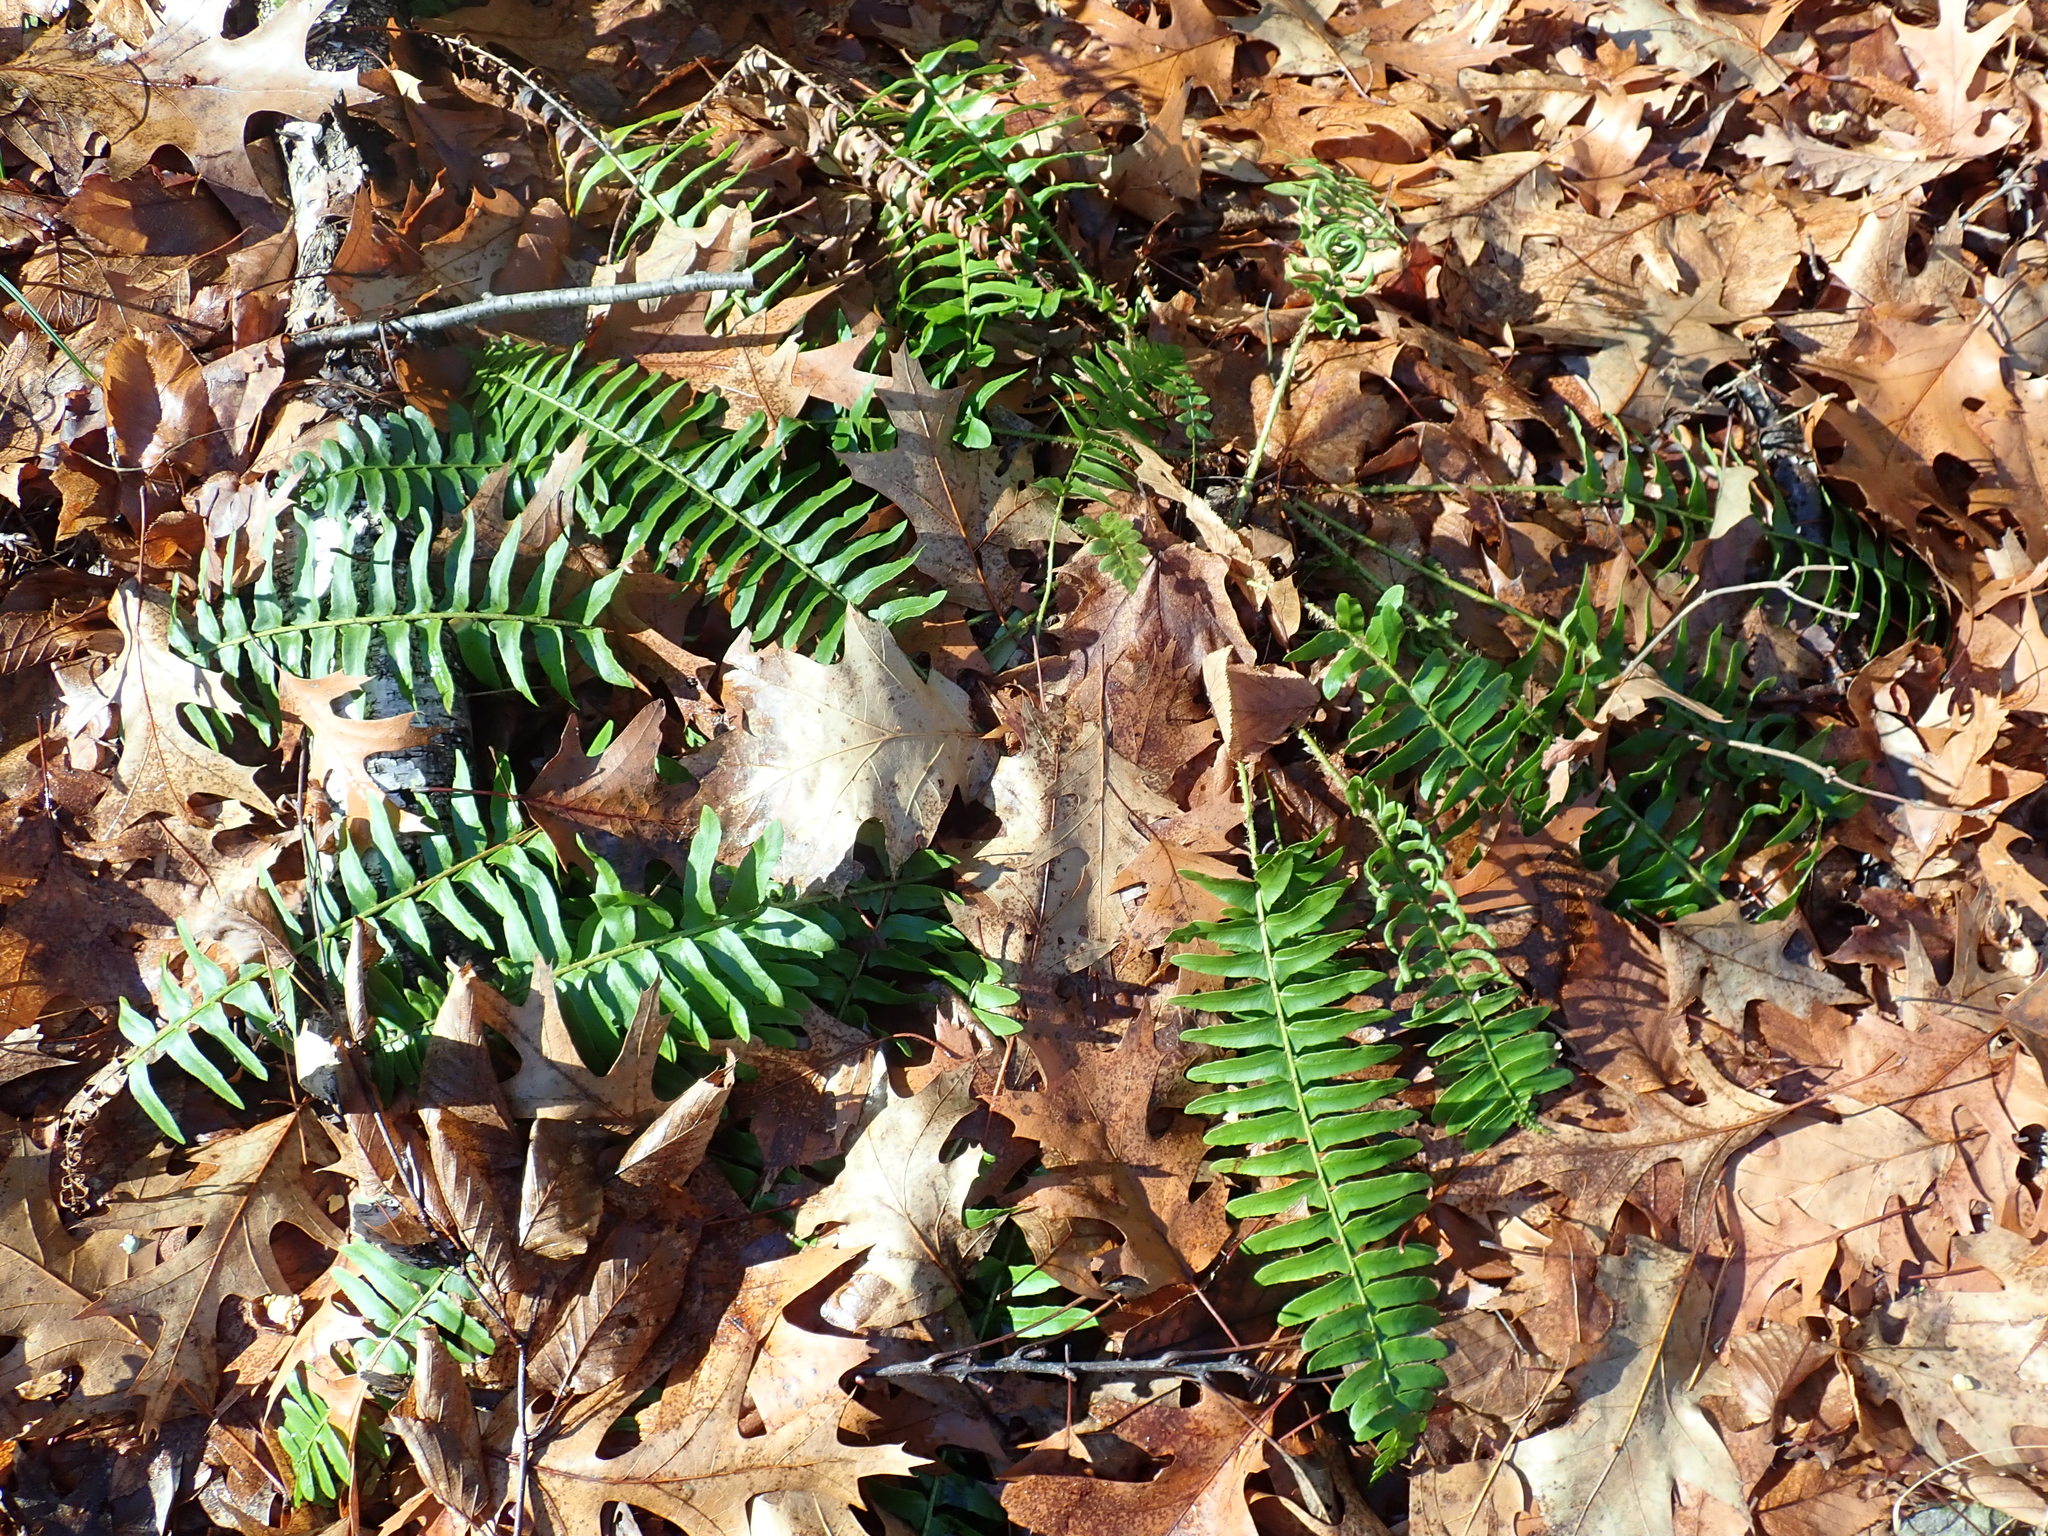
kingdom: Plantae
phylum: Tracheophyta
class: Polypodiopsida
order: Polypodiales
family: Dryopteridaceae
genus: Polystichum
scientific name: Polystichum acrostichoides
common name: Christmas fern
